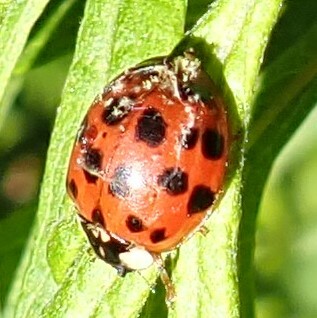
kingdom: Animalia
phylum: Arthropoda
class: Insecta
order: Coleoptera
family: Coccinellidae
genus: Harmonia
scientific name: Harmonia axyridis
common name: Harlequin ladybird
